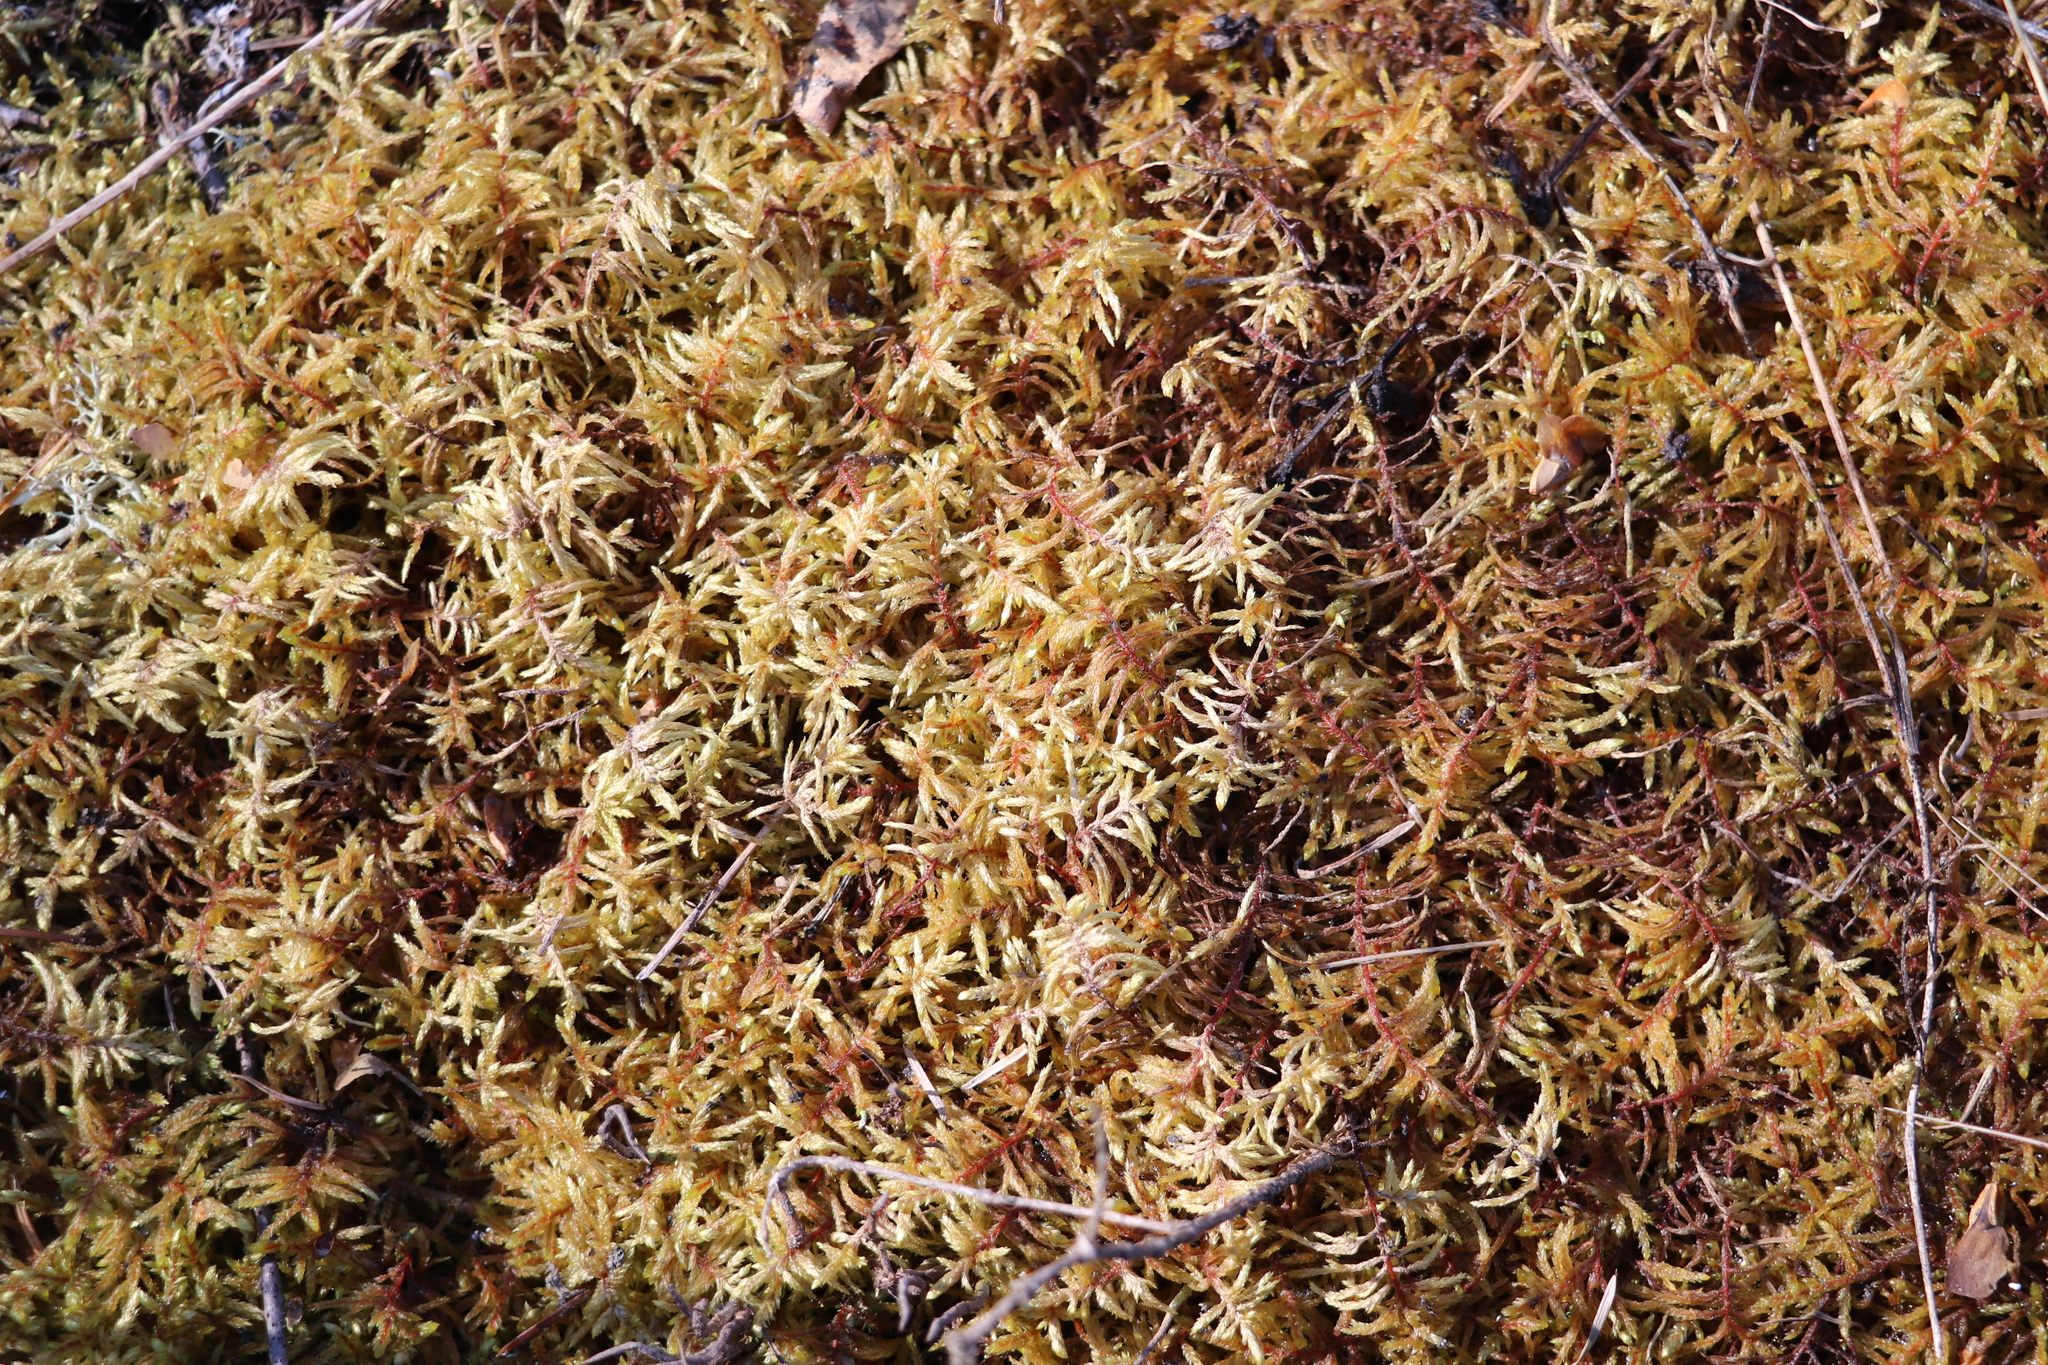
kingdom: Plantae
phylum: Bryophyta
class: Bryopsida
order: Hypnales
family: Hylocomiaceae
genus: Pleurozium
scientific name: Pleurozium schreberi
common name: Red-stemmed feather moss
